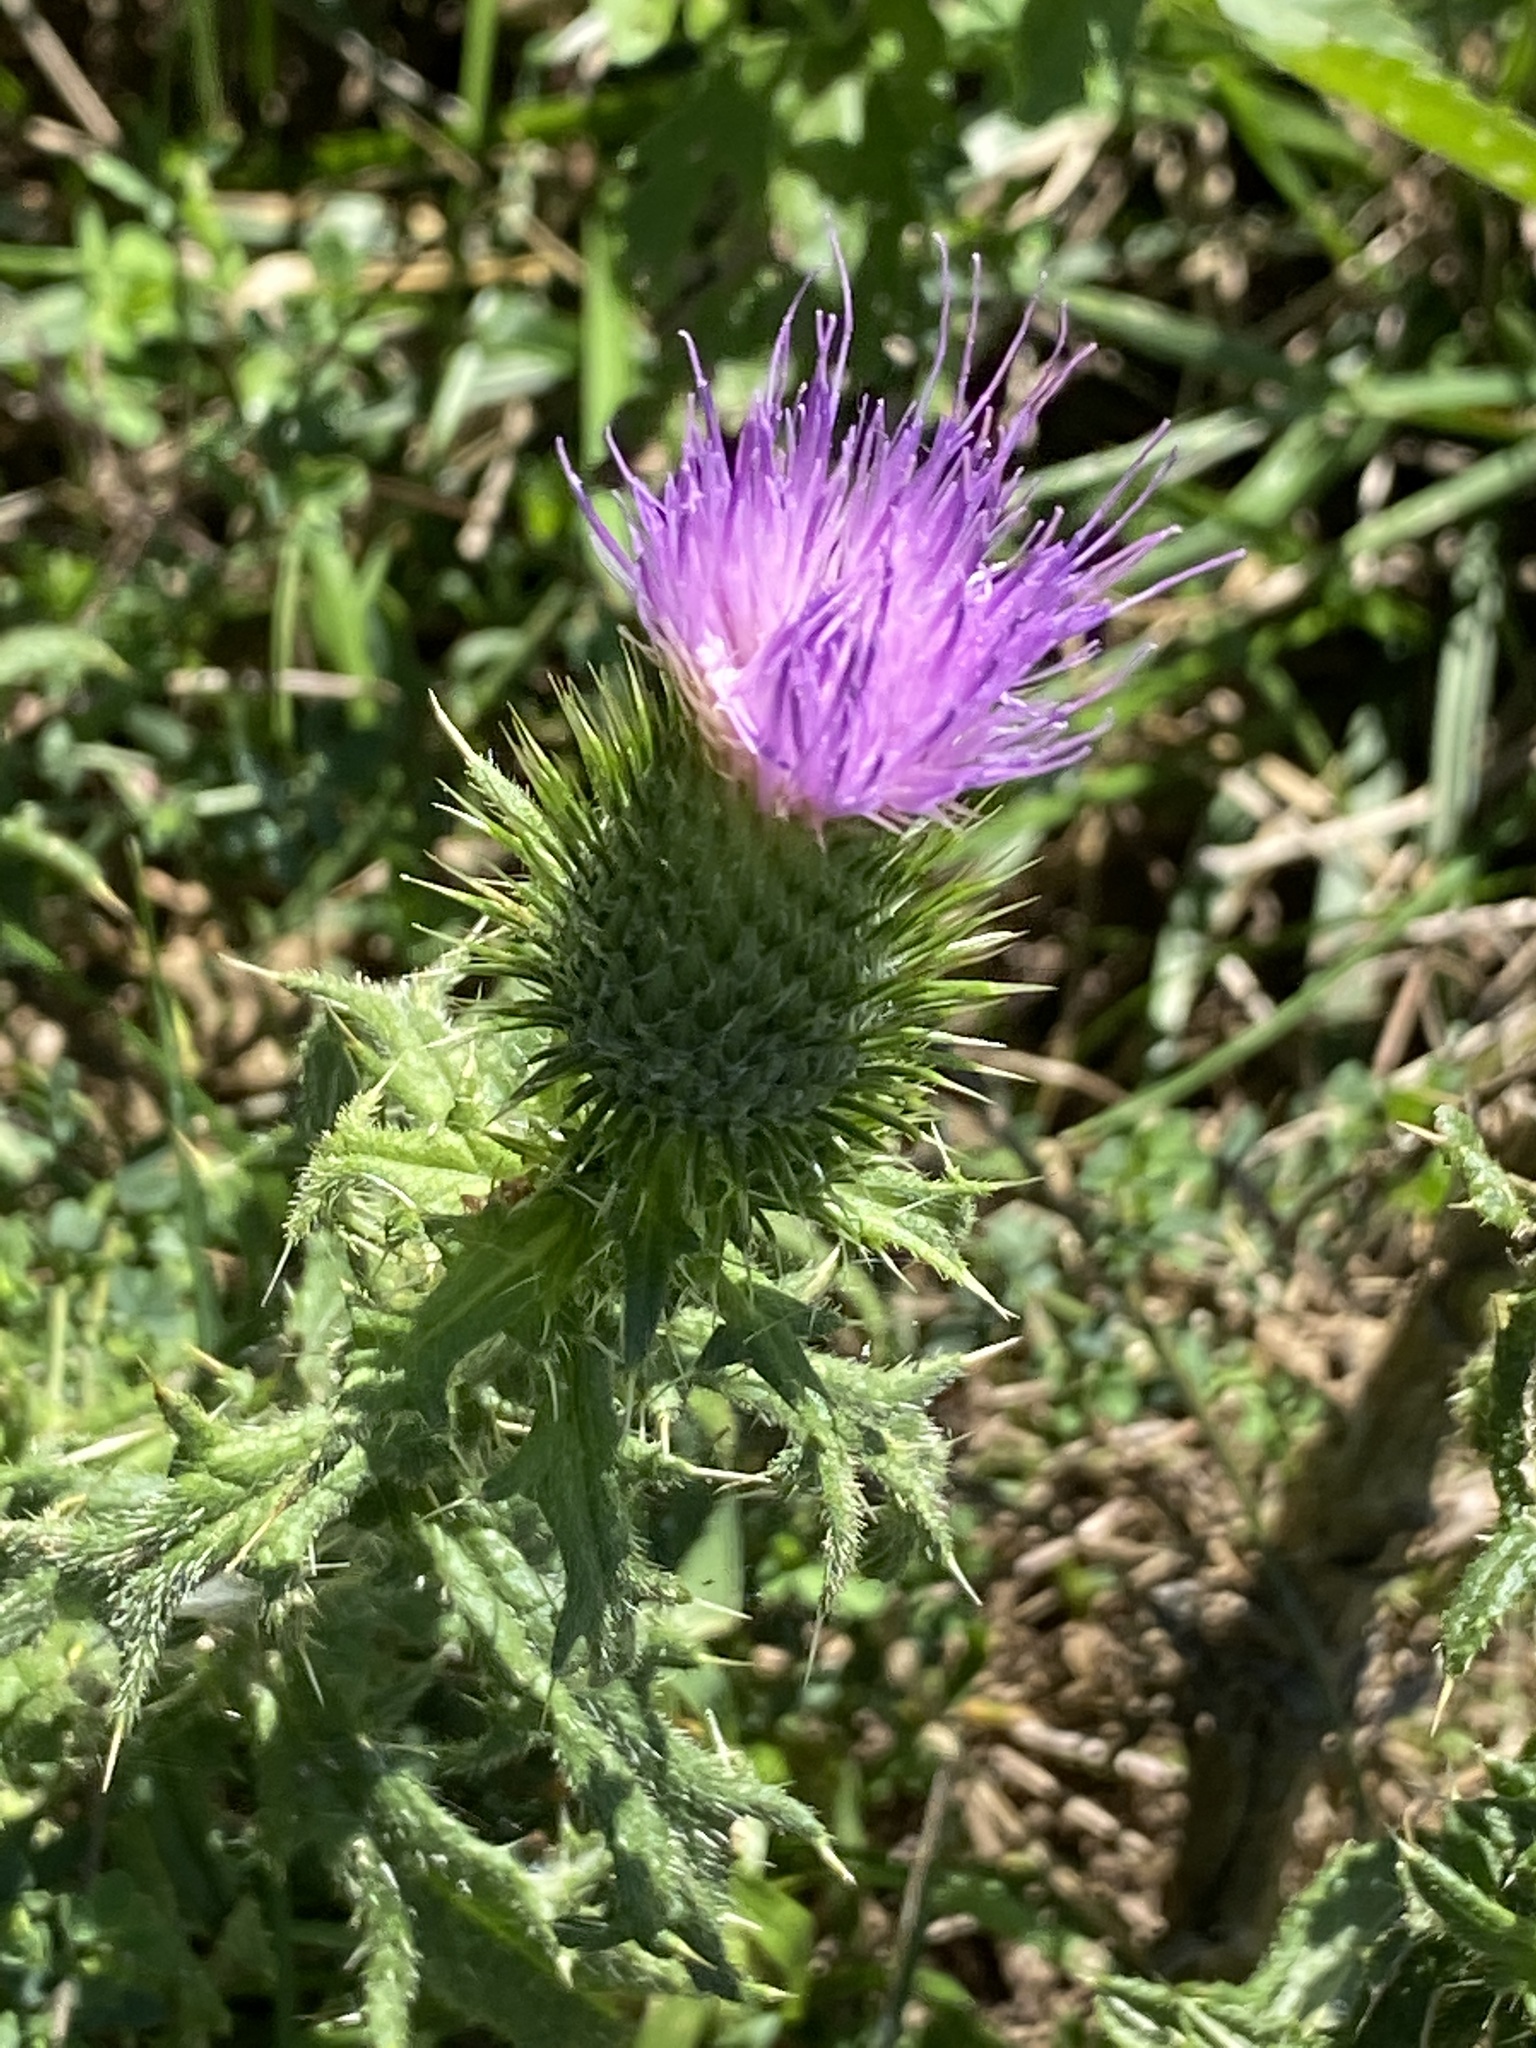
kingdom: Plantae
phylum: Tracheophyta
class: Magnoliopsida
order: Asterales
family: Asteraceae
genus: Cirsium
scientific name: Cirsium vulgare
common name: Bull thistle
